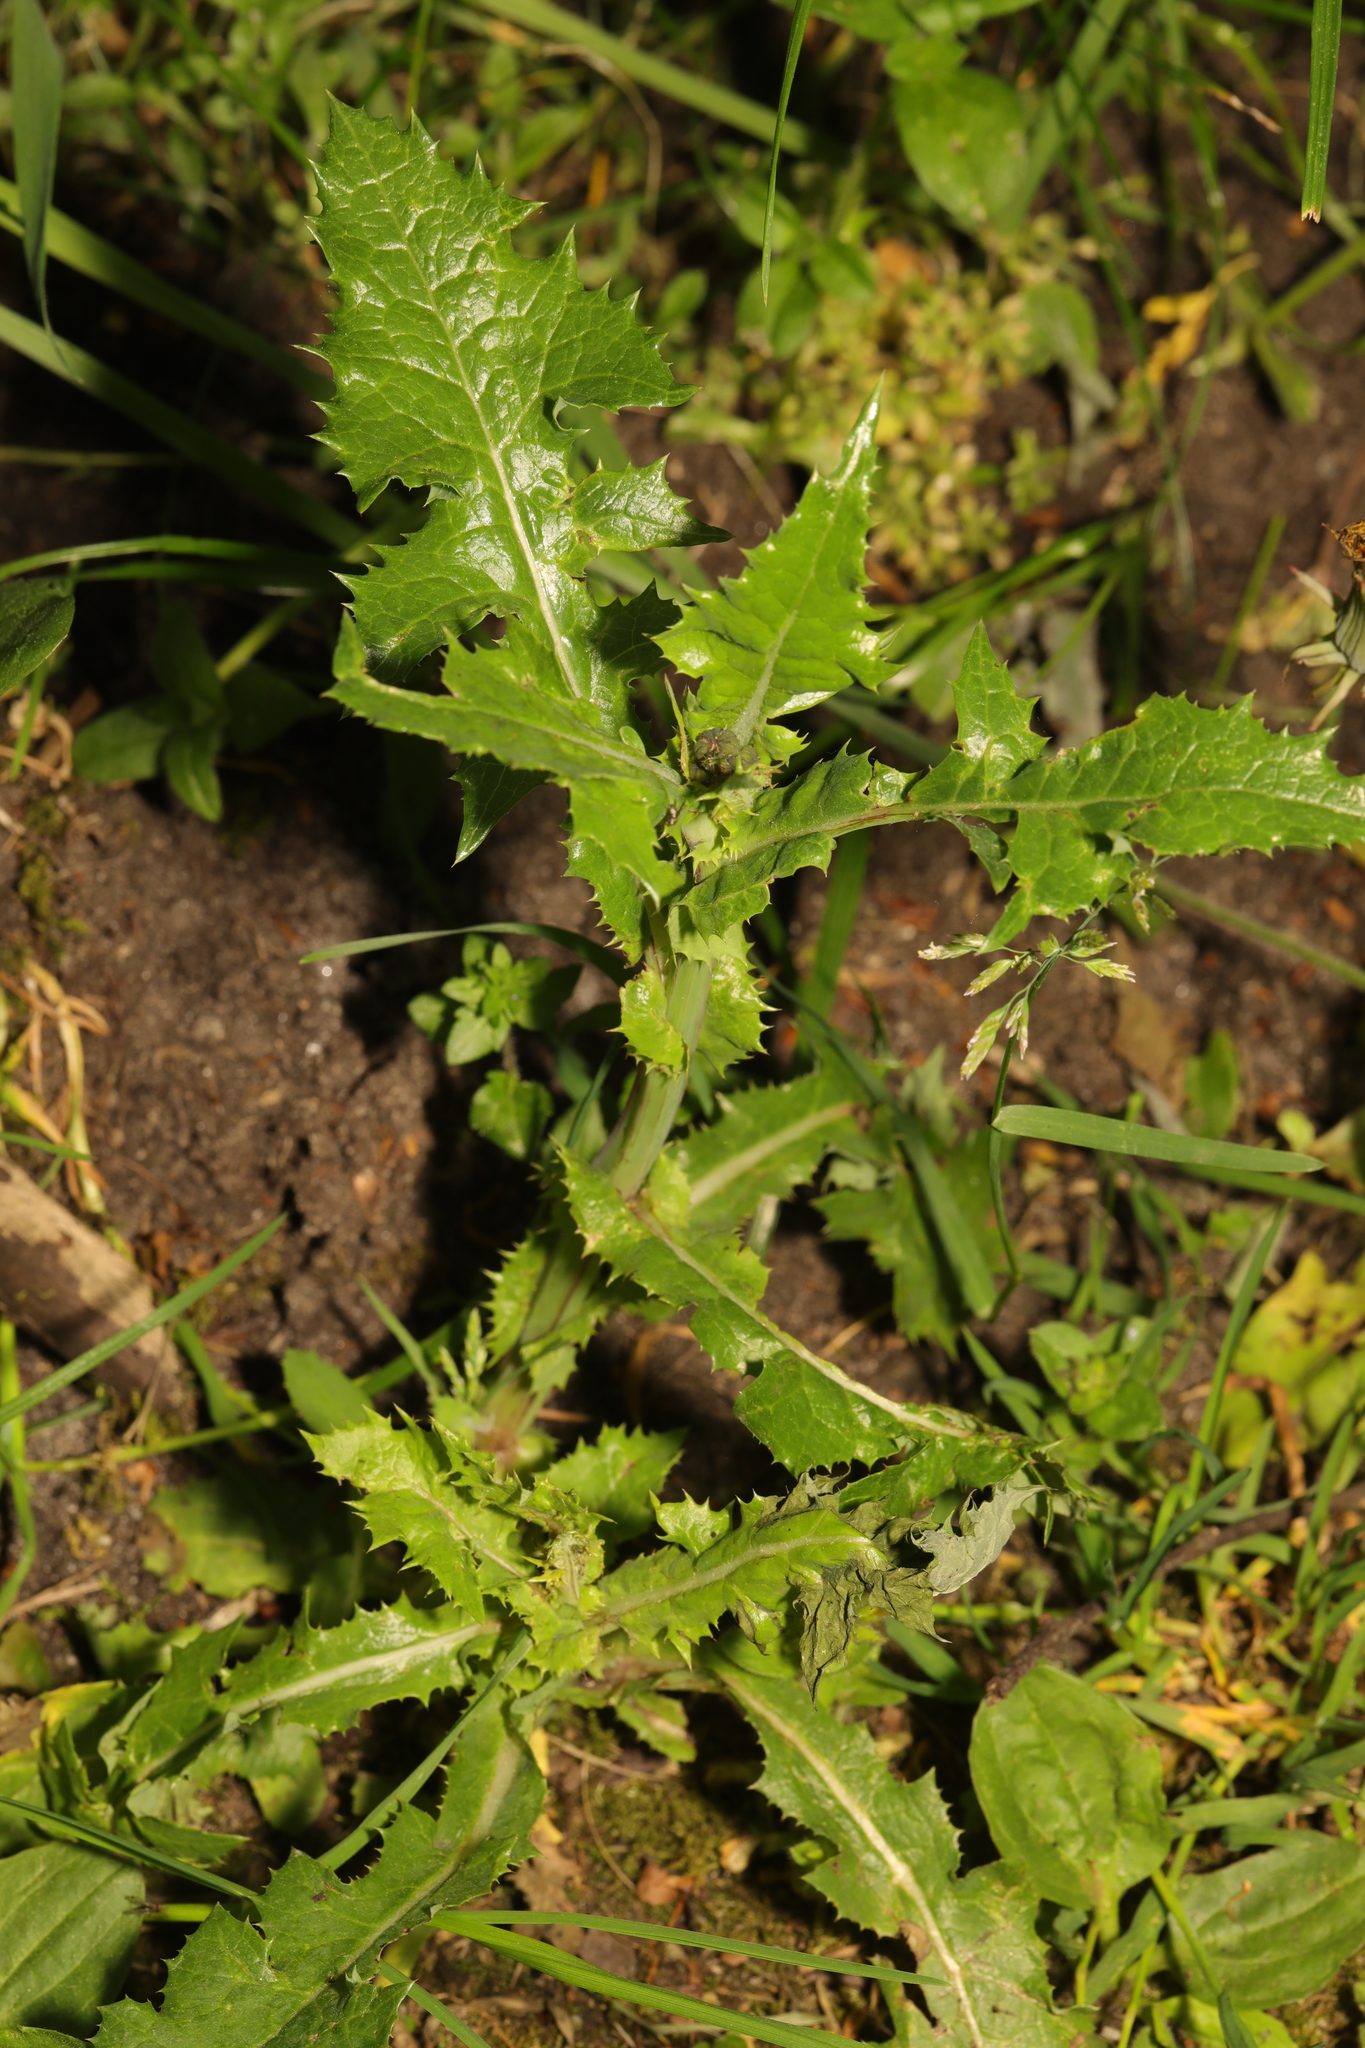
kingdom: Plantae
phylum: Tracheophyta
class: Magnoliopsida
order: Asterales
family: Asteraceae
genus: Sonchus
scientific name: Sonchus asper
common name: Prickly sow-thistle
